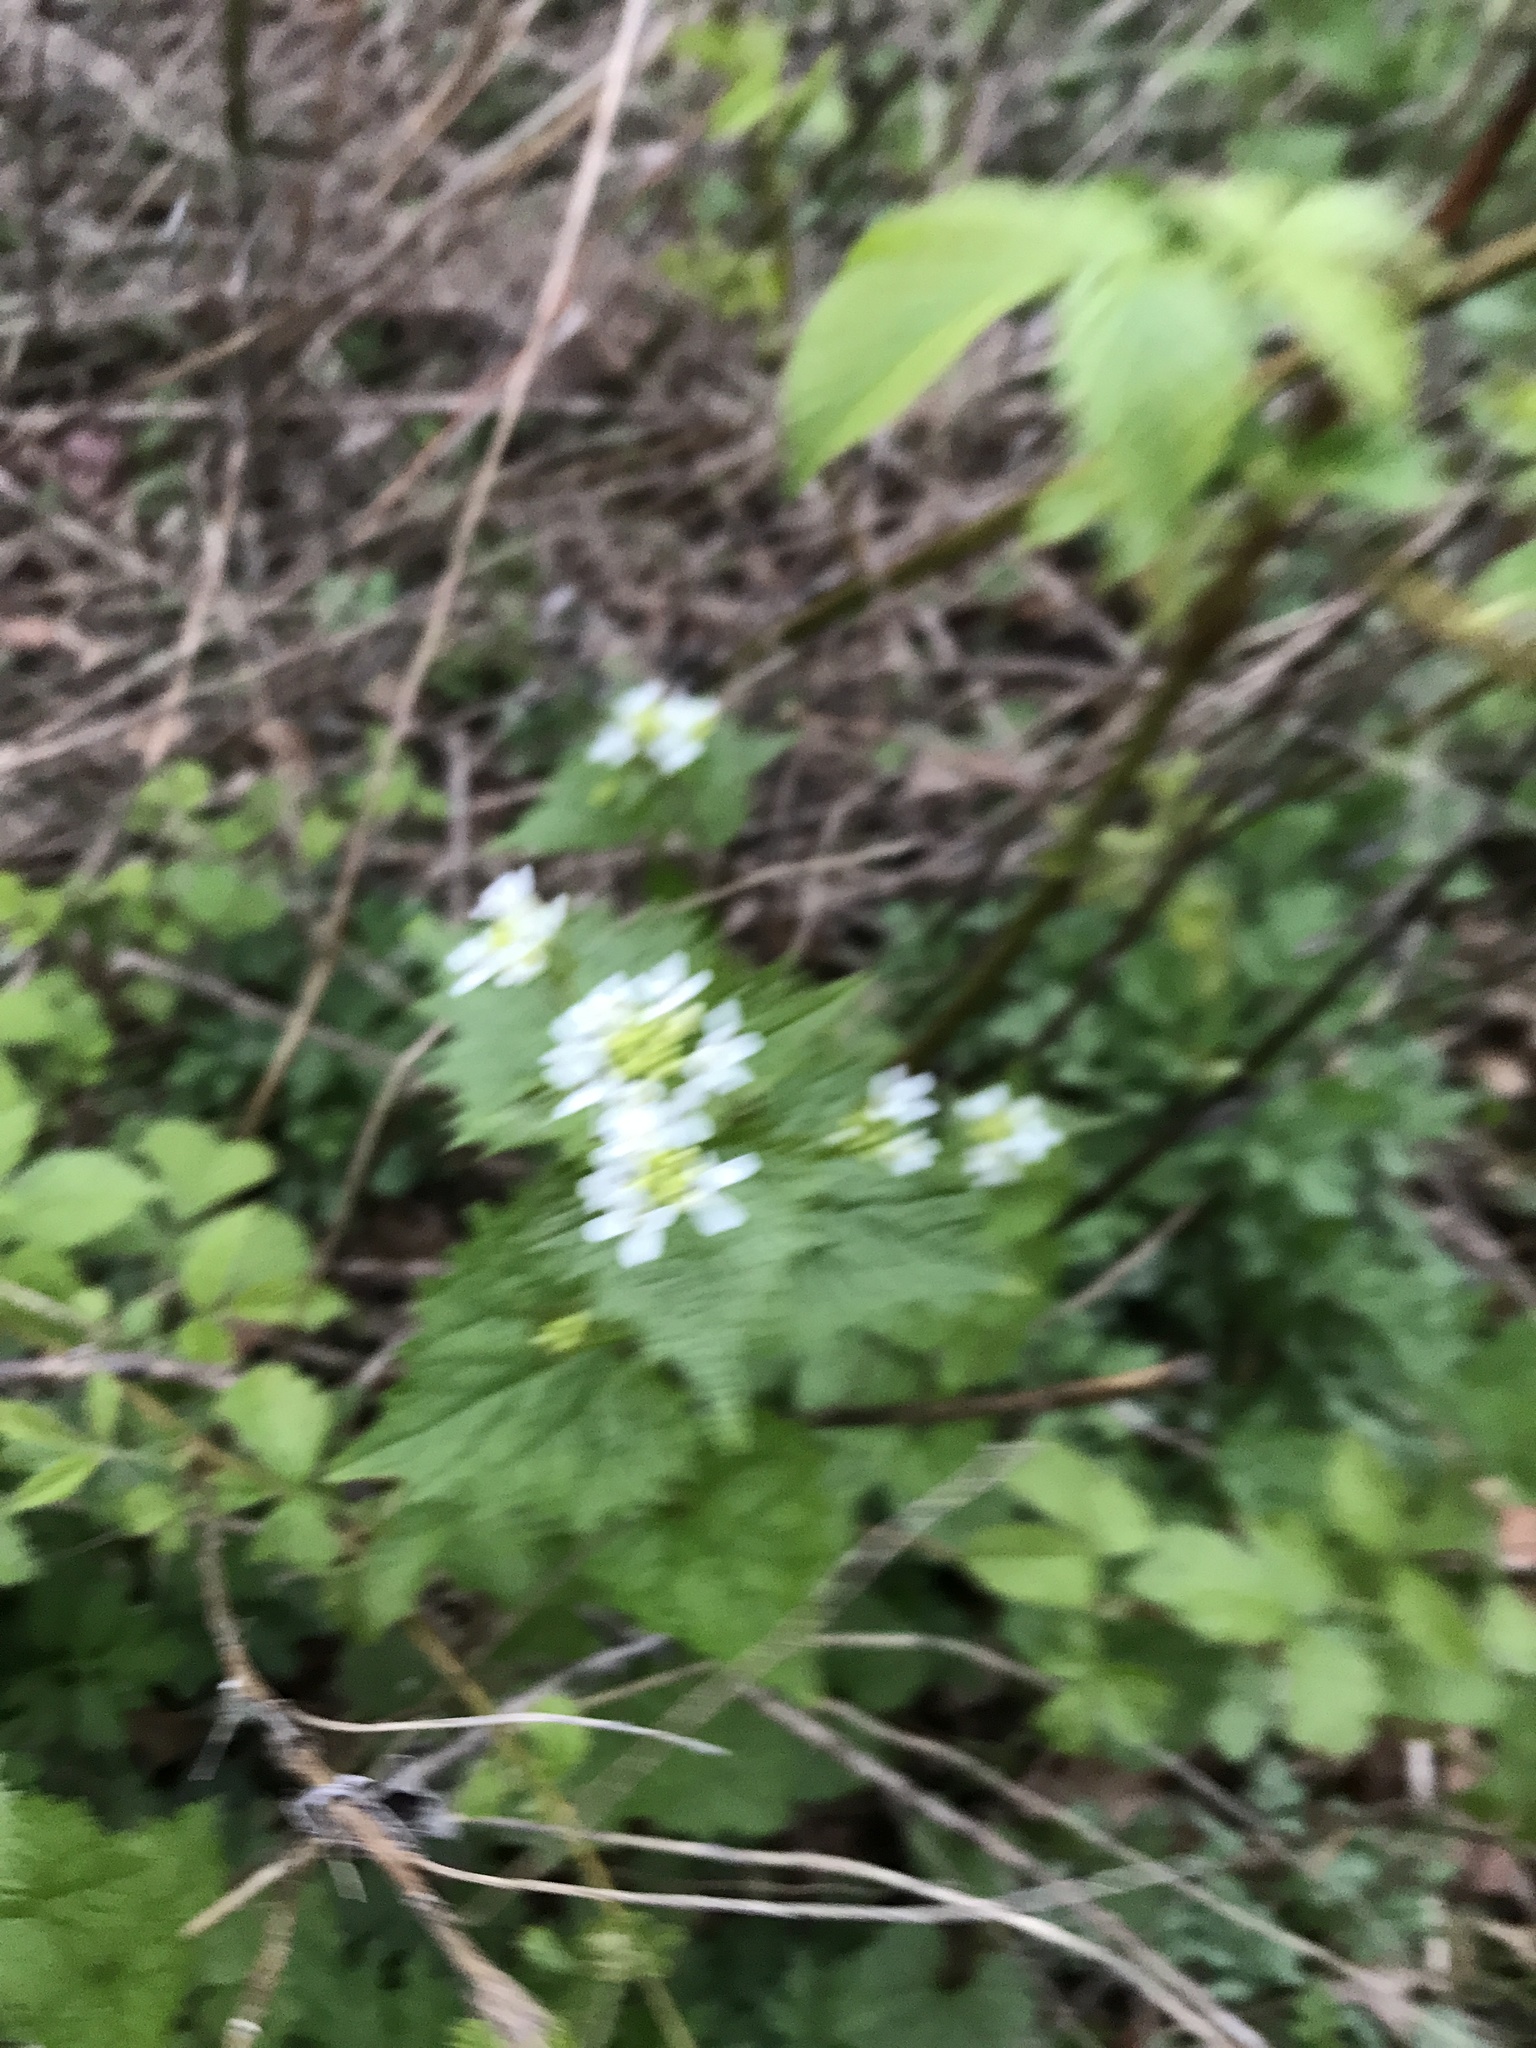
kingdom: Plantae
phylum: Tracheophyta
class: Magnoliopsida
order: Brassicales
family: Brassicaceae
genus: Alliaria
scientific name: Alliaria petiolata
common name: Garlic mustard
